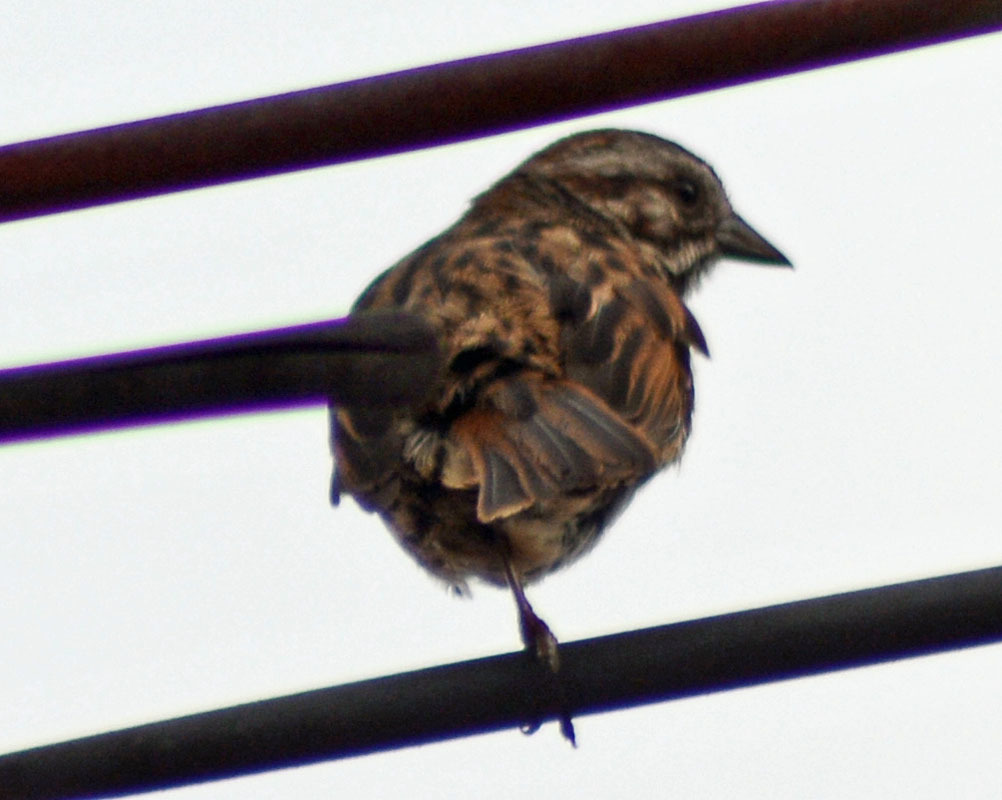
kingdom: Animalia
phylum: Chordata
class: Aves
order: Passeriformes
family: Passerellidae
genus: Melospiza
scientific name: Melospiza melodia
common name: Song sparrow
